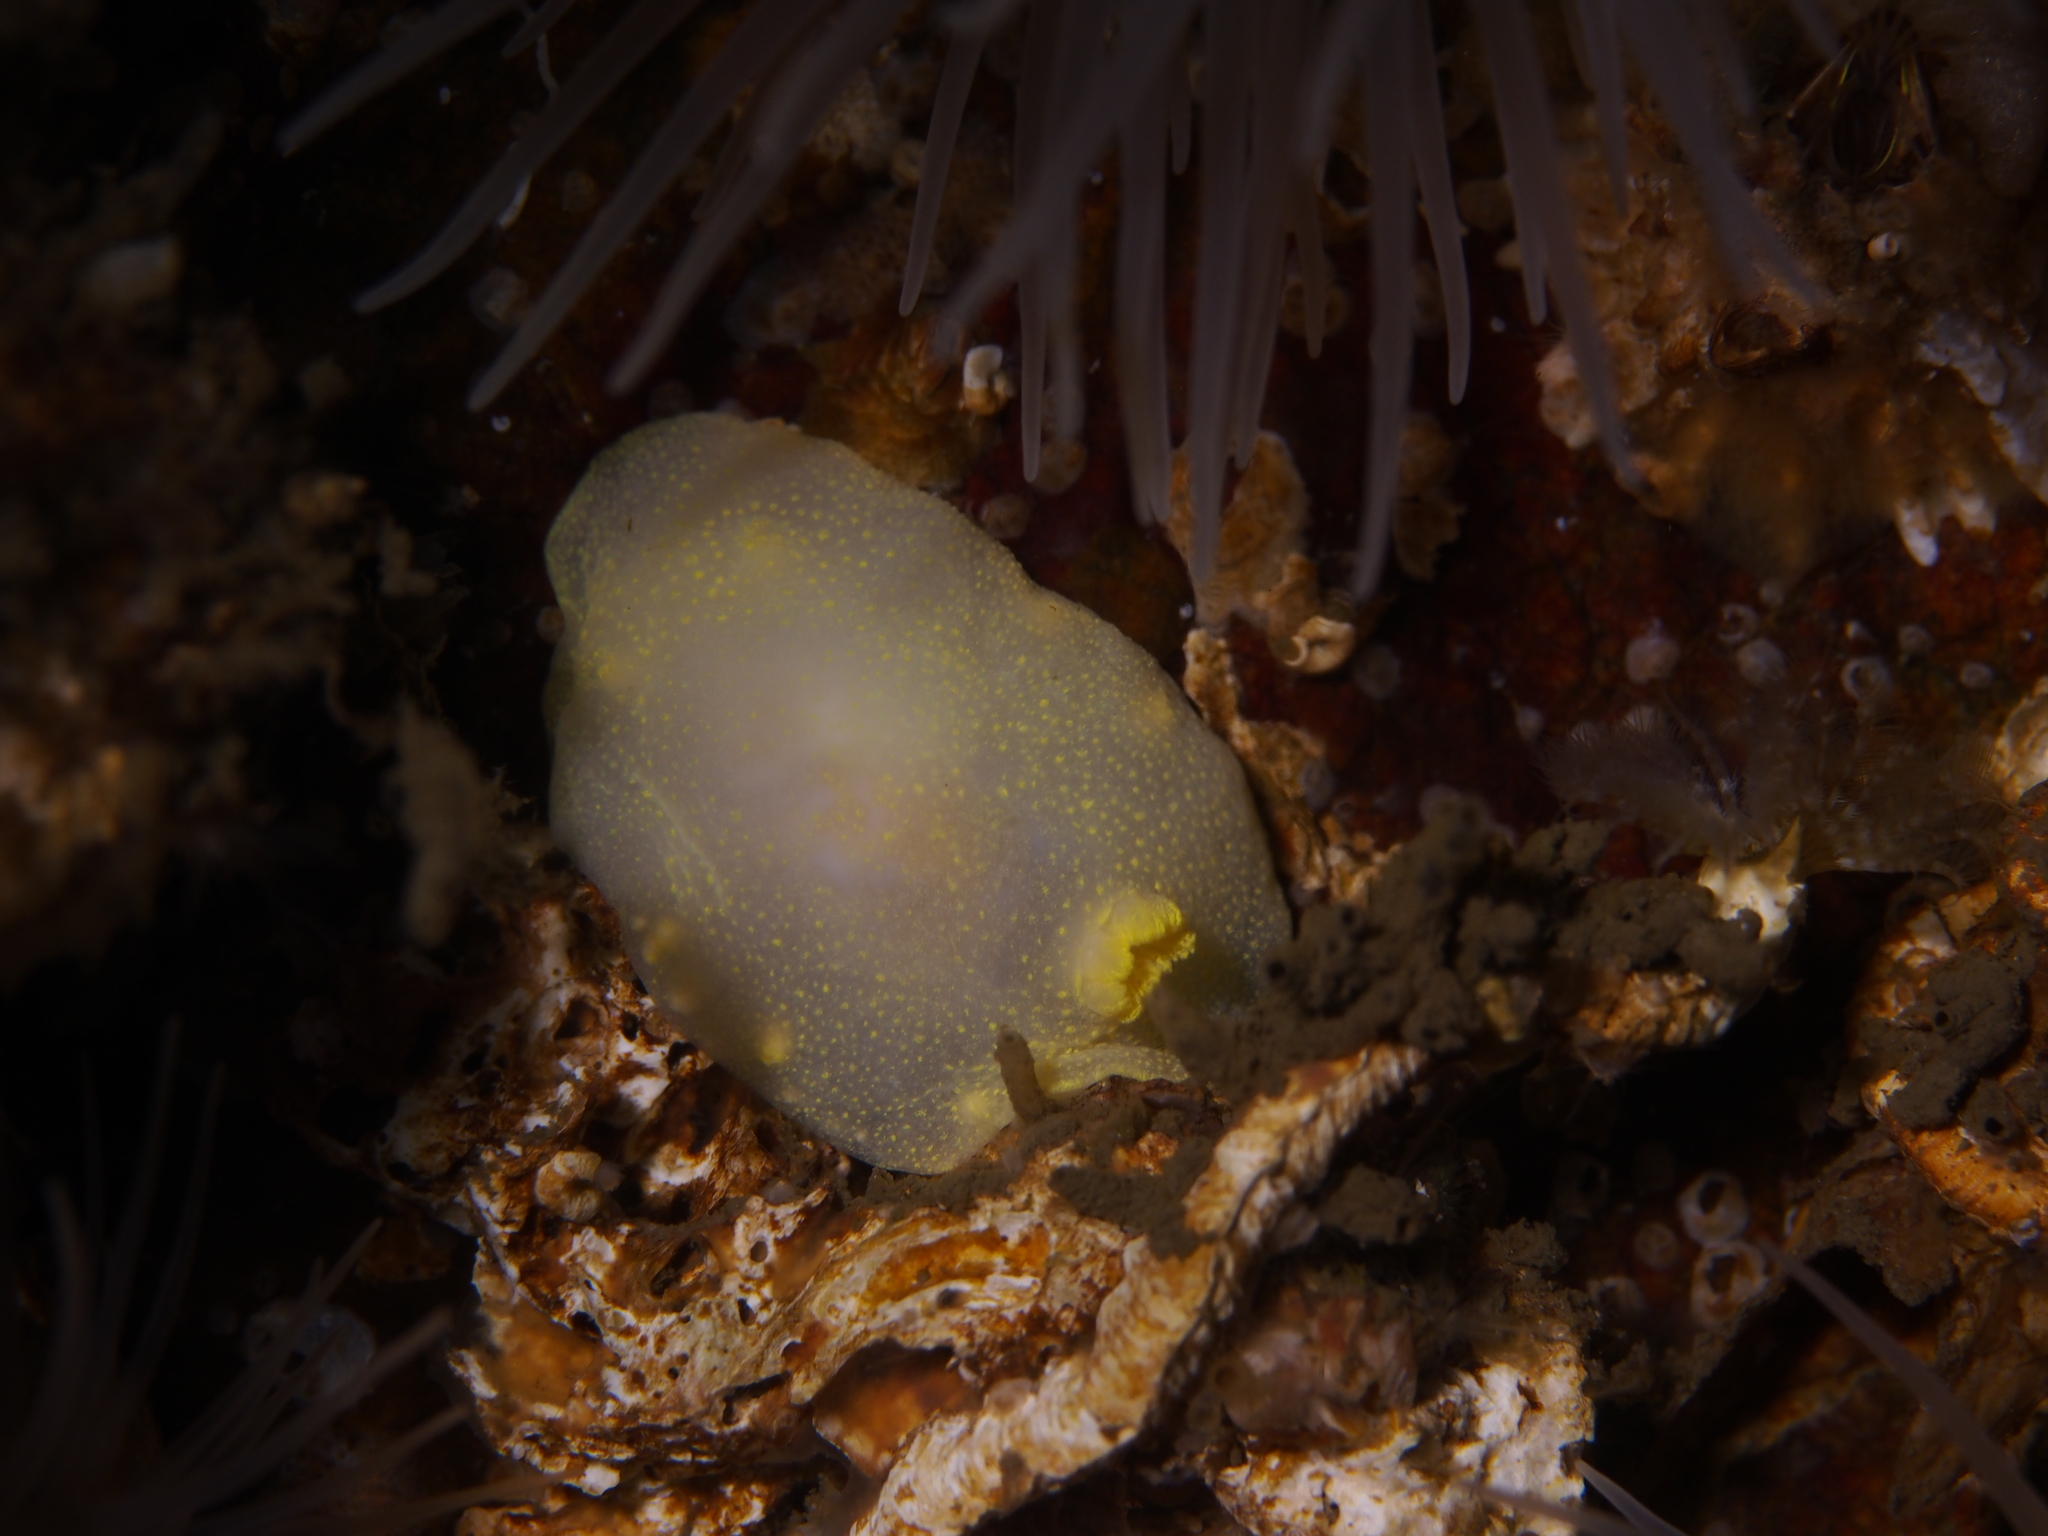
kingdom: Animalia
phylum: Mollusca
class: Gastropoda
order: Nudibranchia
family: Cadlinidae
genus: Cadlina
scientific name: Cadlina laevis
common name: White atlantic cadlina
